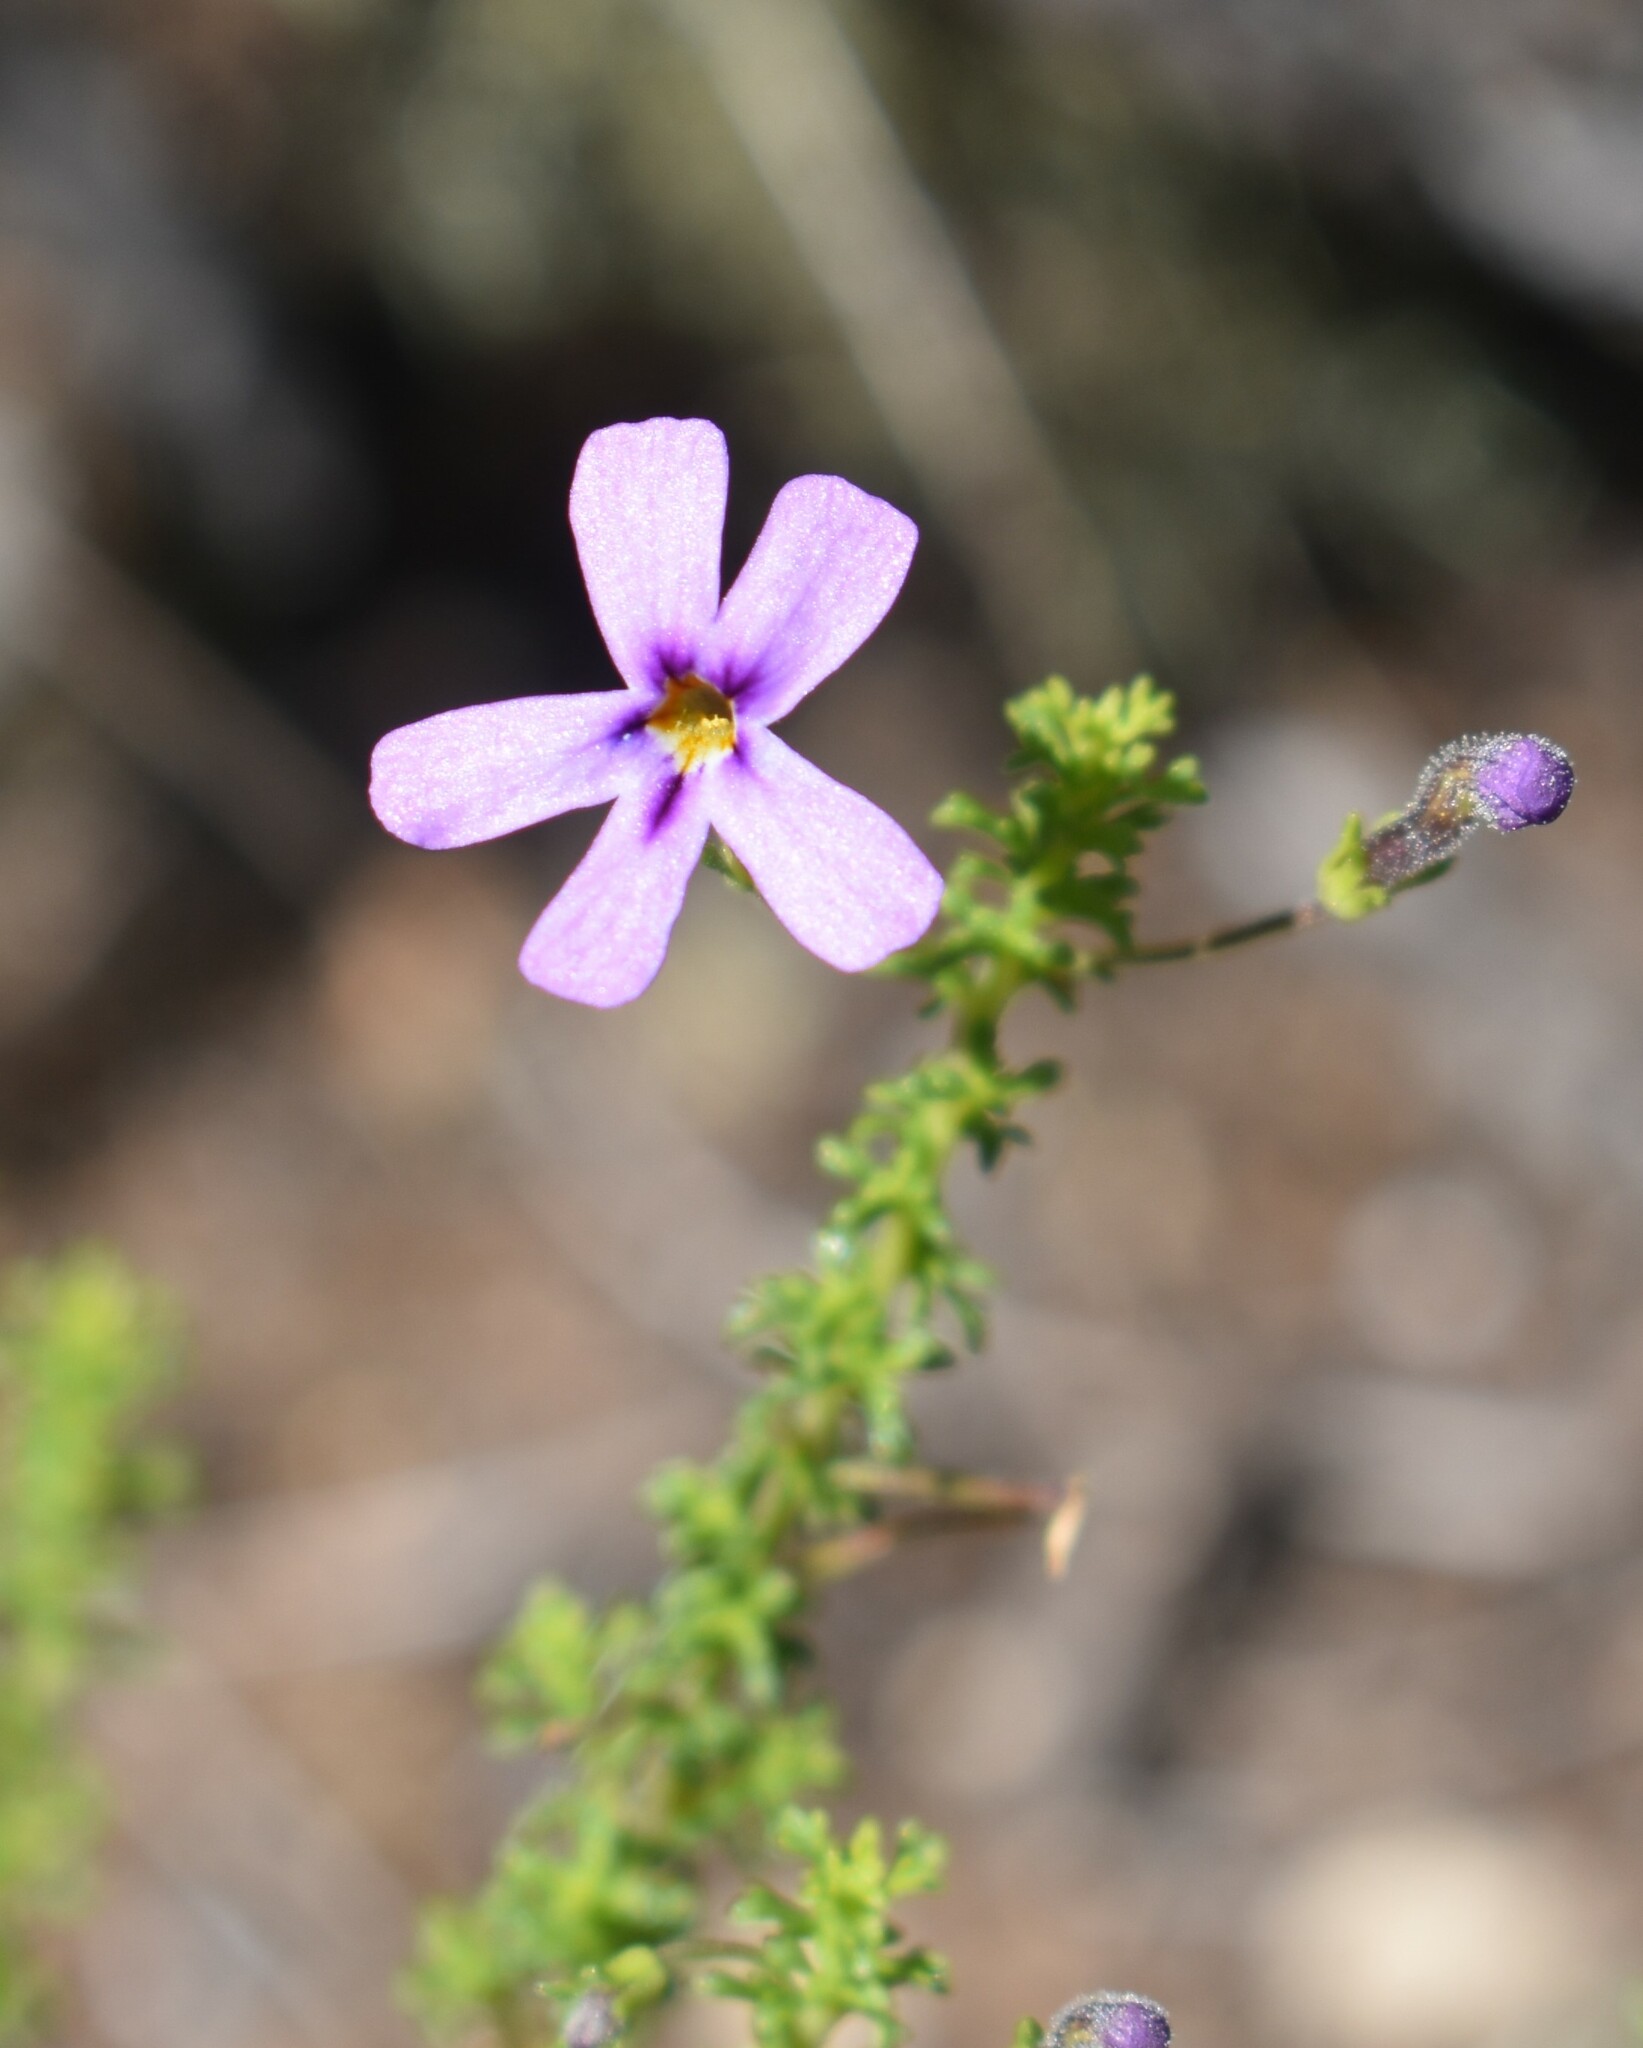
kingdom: Plantae
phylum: Tracheophyta
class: Magnoliopsida
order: Lamiales
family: Scrophulariaceae
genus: Jamesbrittenia
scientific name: Jamesbrittenia tenuifolia
